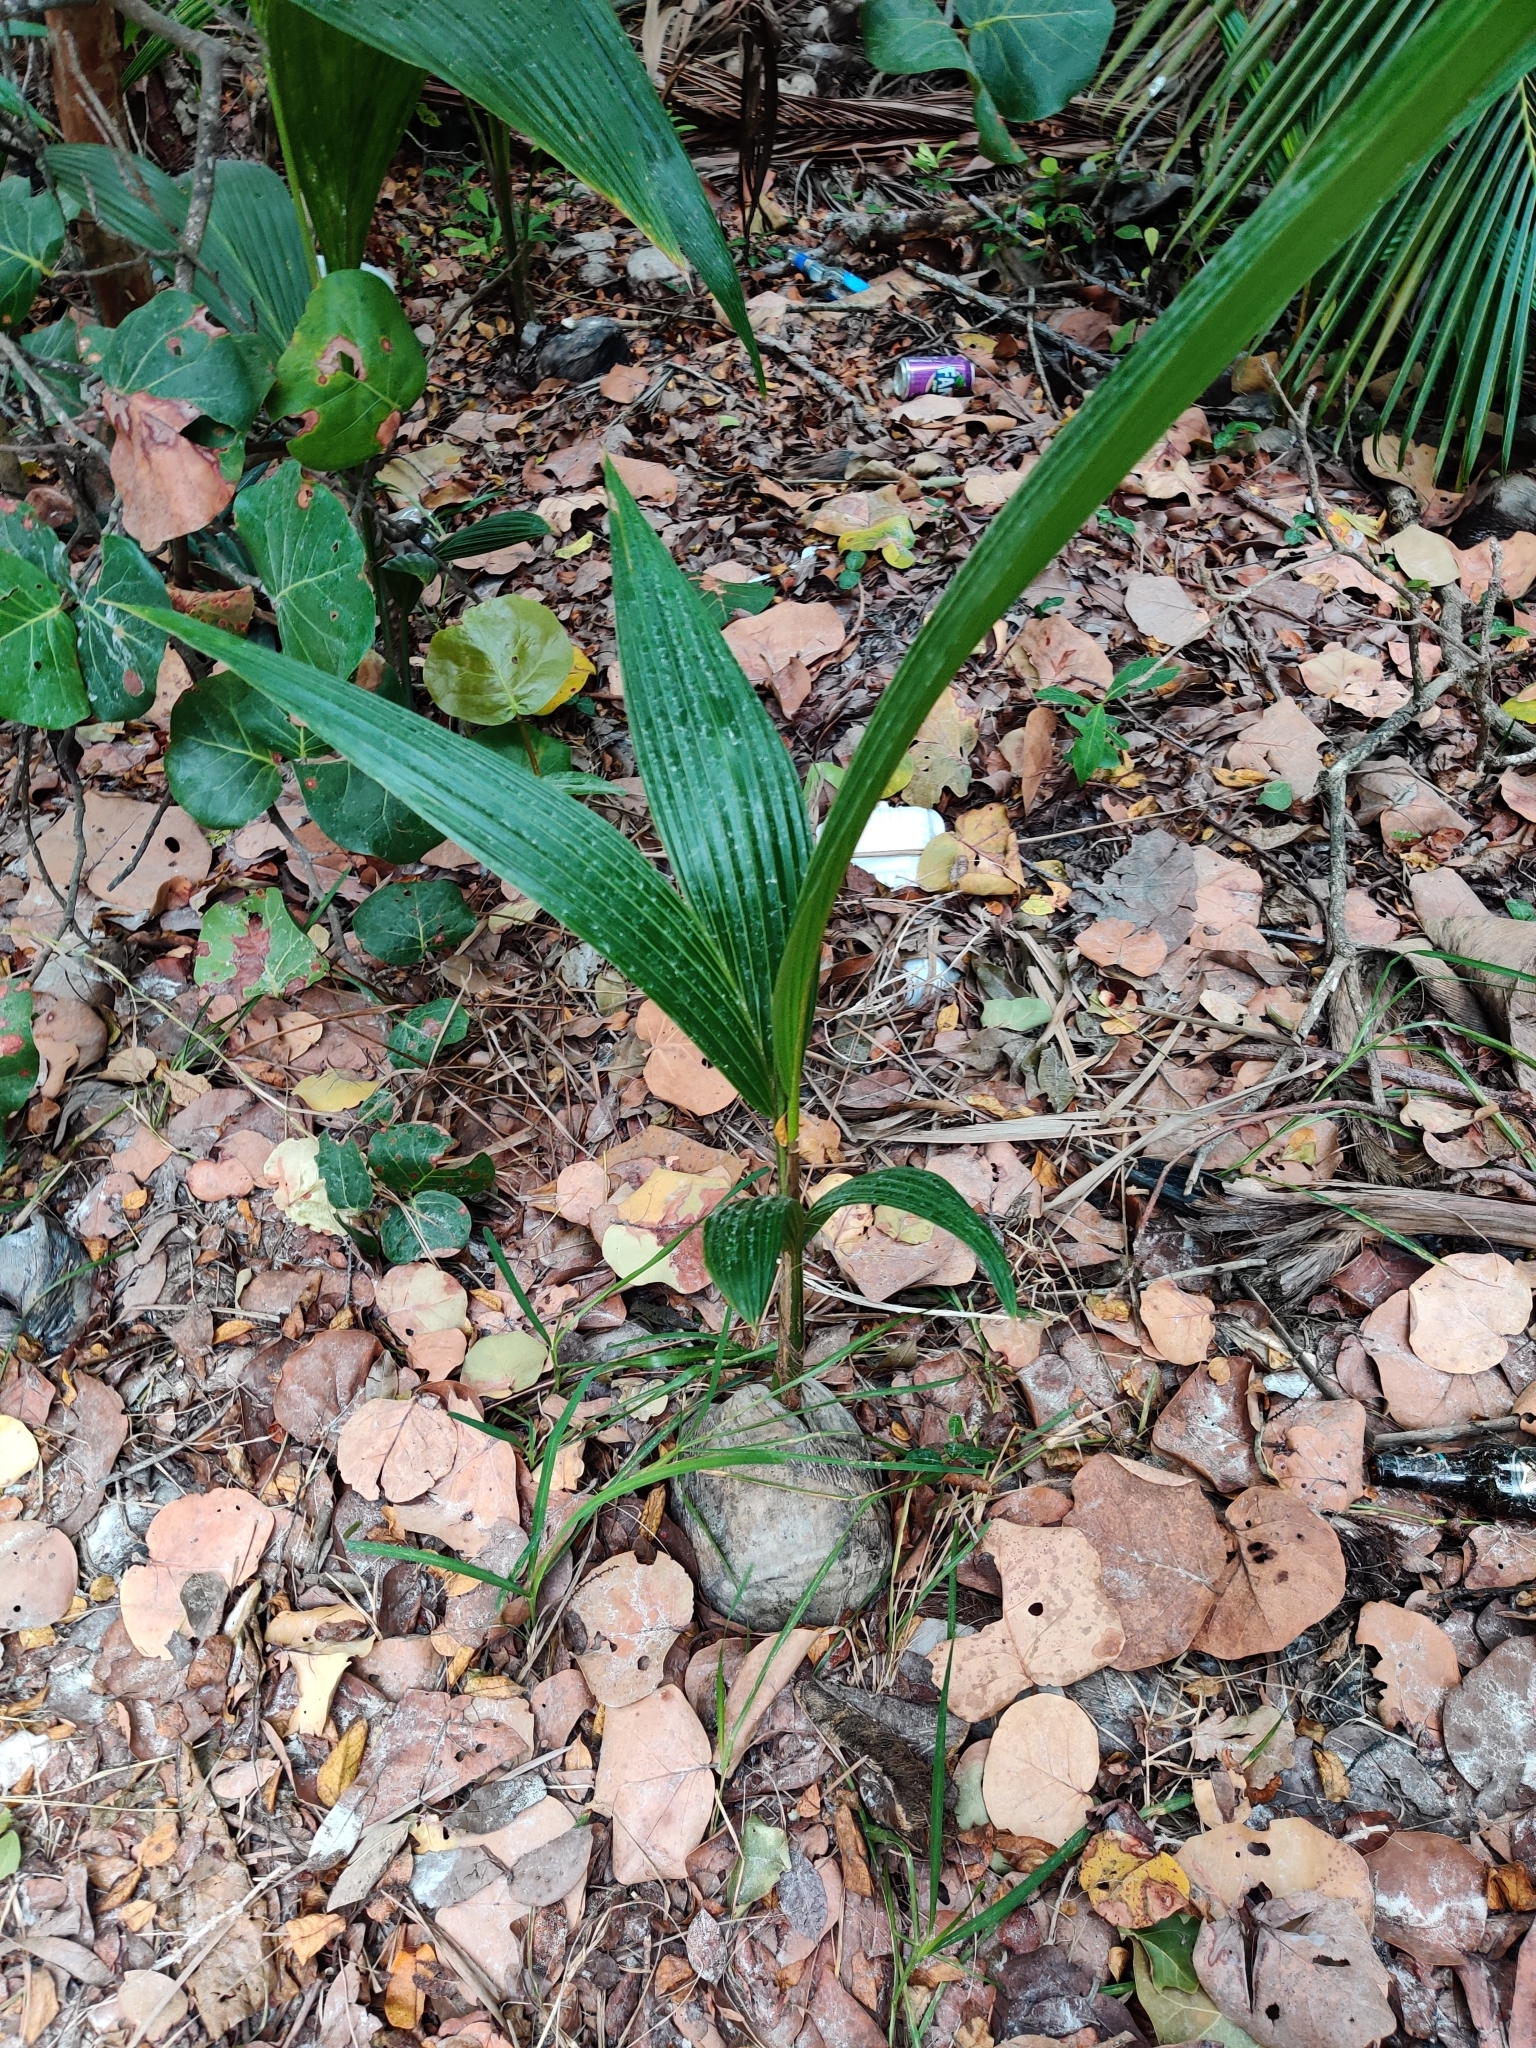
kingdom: Plantae
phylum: Tracheophyta
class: Liliopsida
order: Arecales
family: Arecaceae
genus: Cocos
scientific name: Cocos nucifera
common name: Coconut palm
